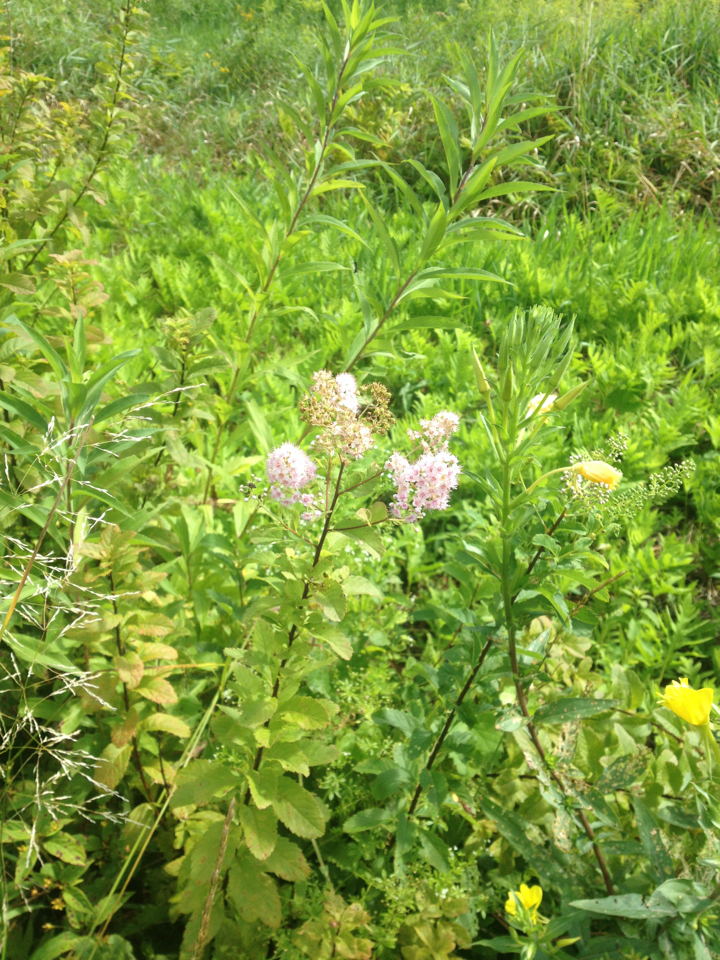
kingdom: Plantae
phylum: Tracheophyta
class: Magnoliopsida
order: Rosales
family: Rosaceae
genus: Spiraea
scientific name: Spiraea alba
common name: Pale bridewort
